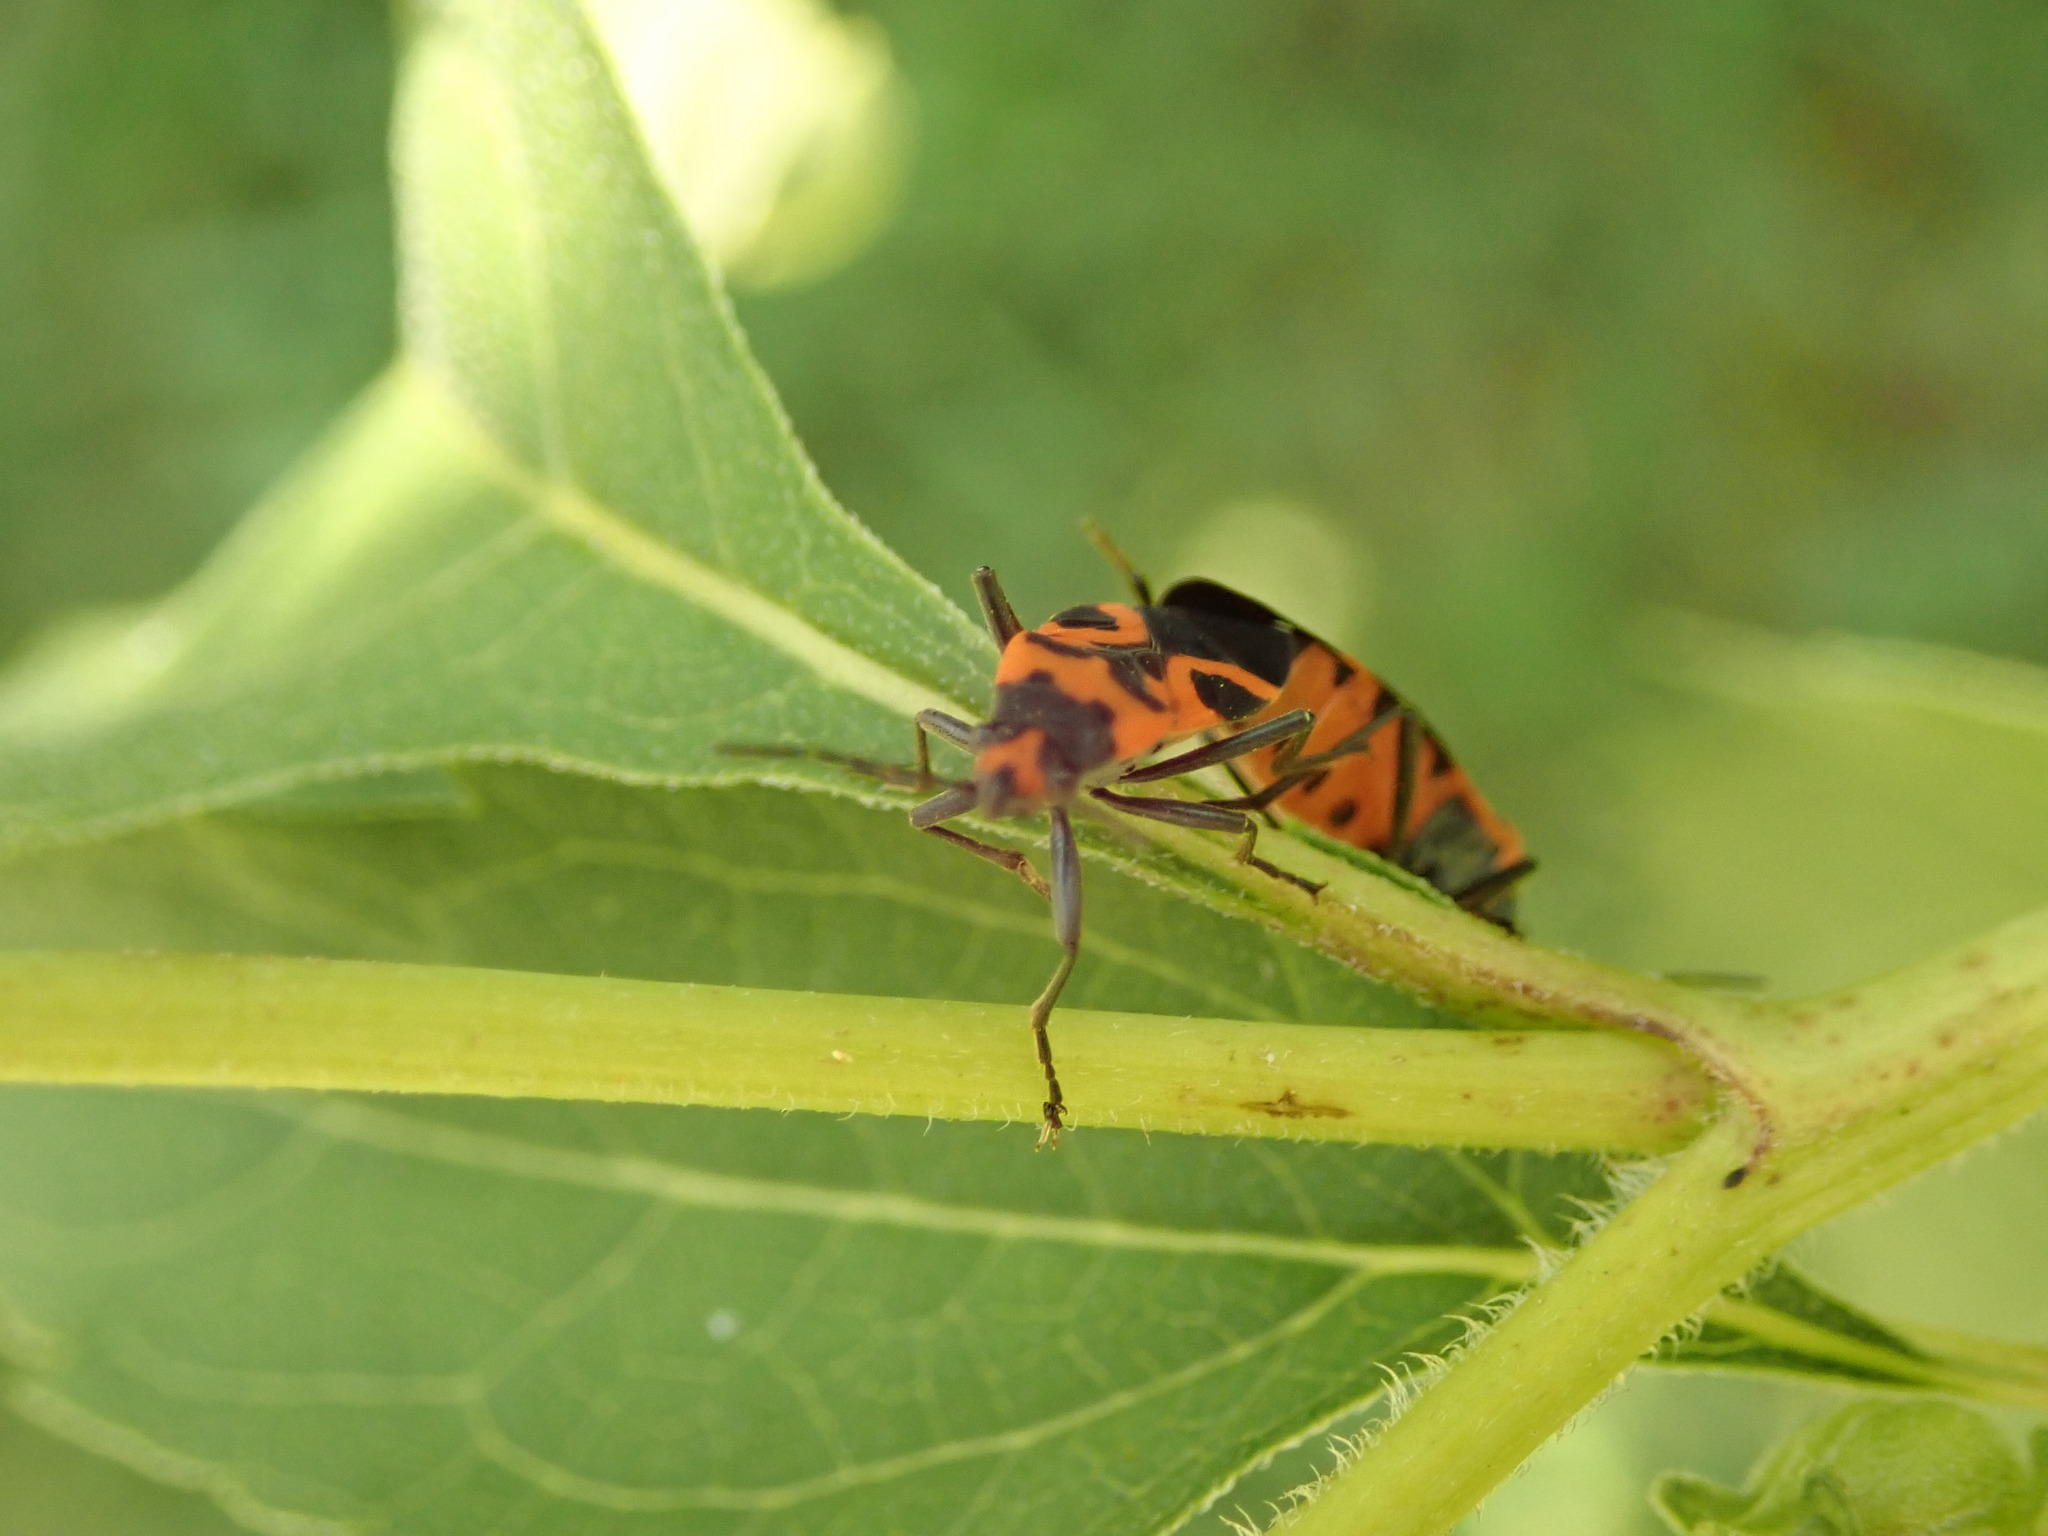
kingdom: Animalia
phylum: Arthropoda
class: Insecta
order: Hemiptera
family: Lygaeidae
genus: Lygaeus
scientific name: Lygaeus turcicus
